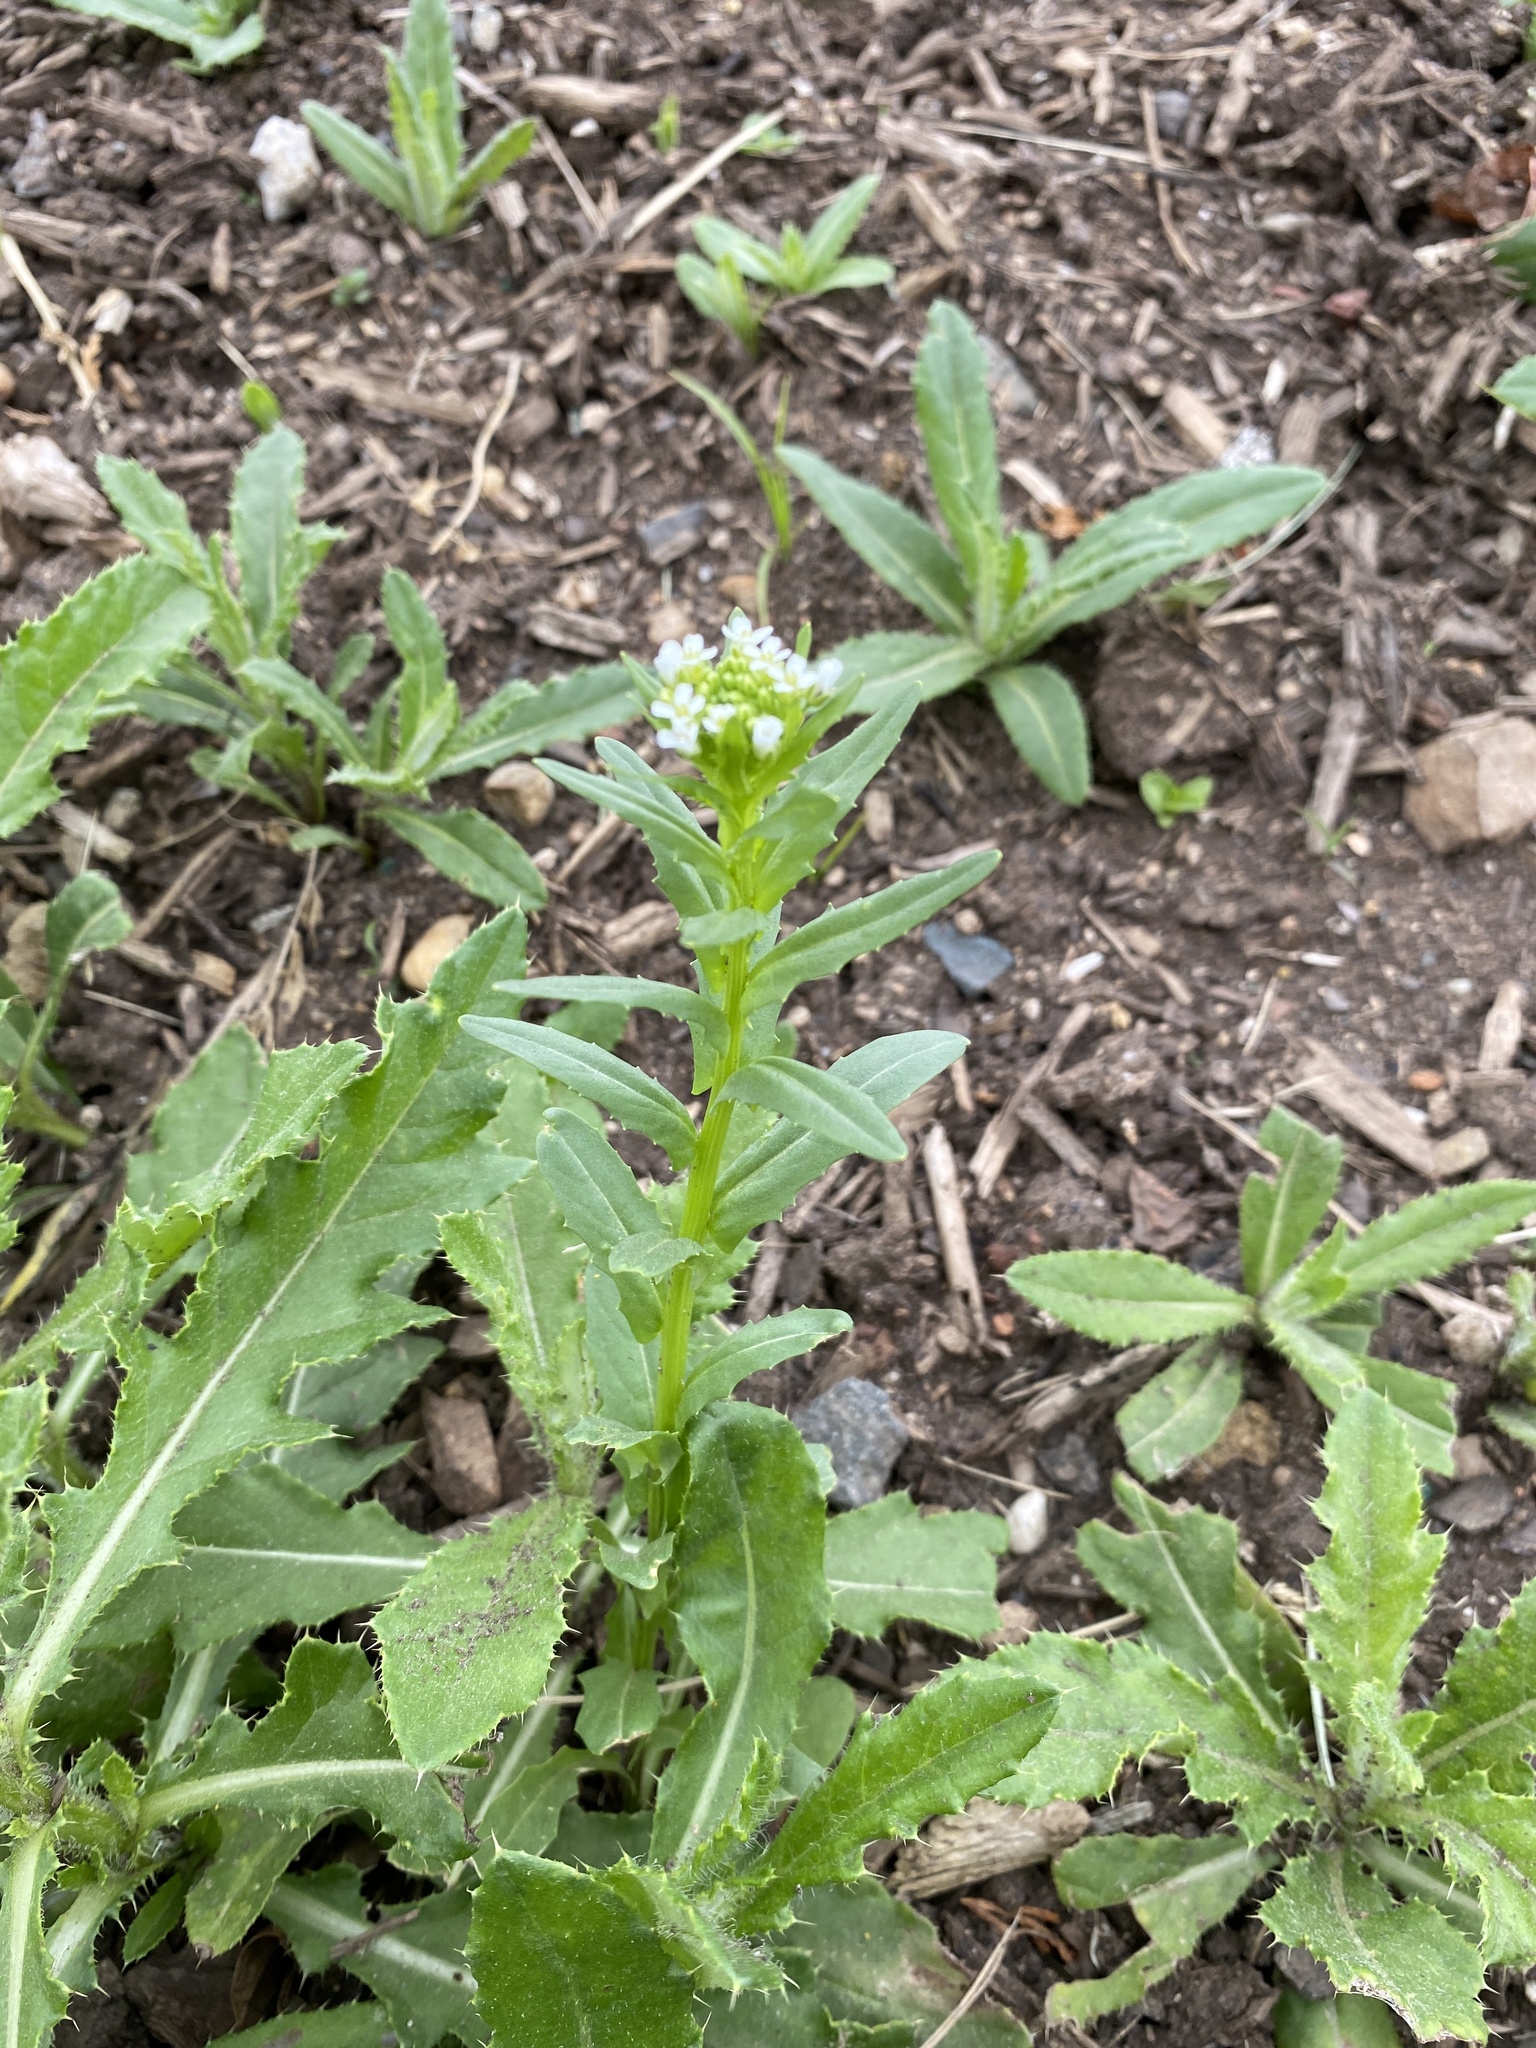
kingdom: Plantae
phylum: Tracheophyta
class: Magnoliopsida
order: Brassicales
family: Brassicaceae
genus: Thlaspi
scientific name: Thlaspi arvense
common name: Field pennycress
